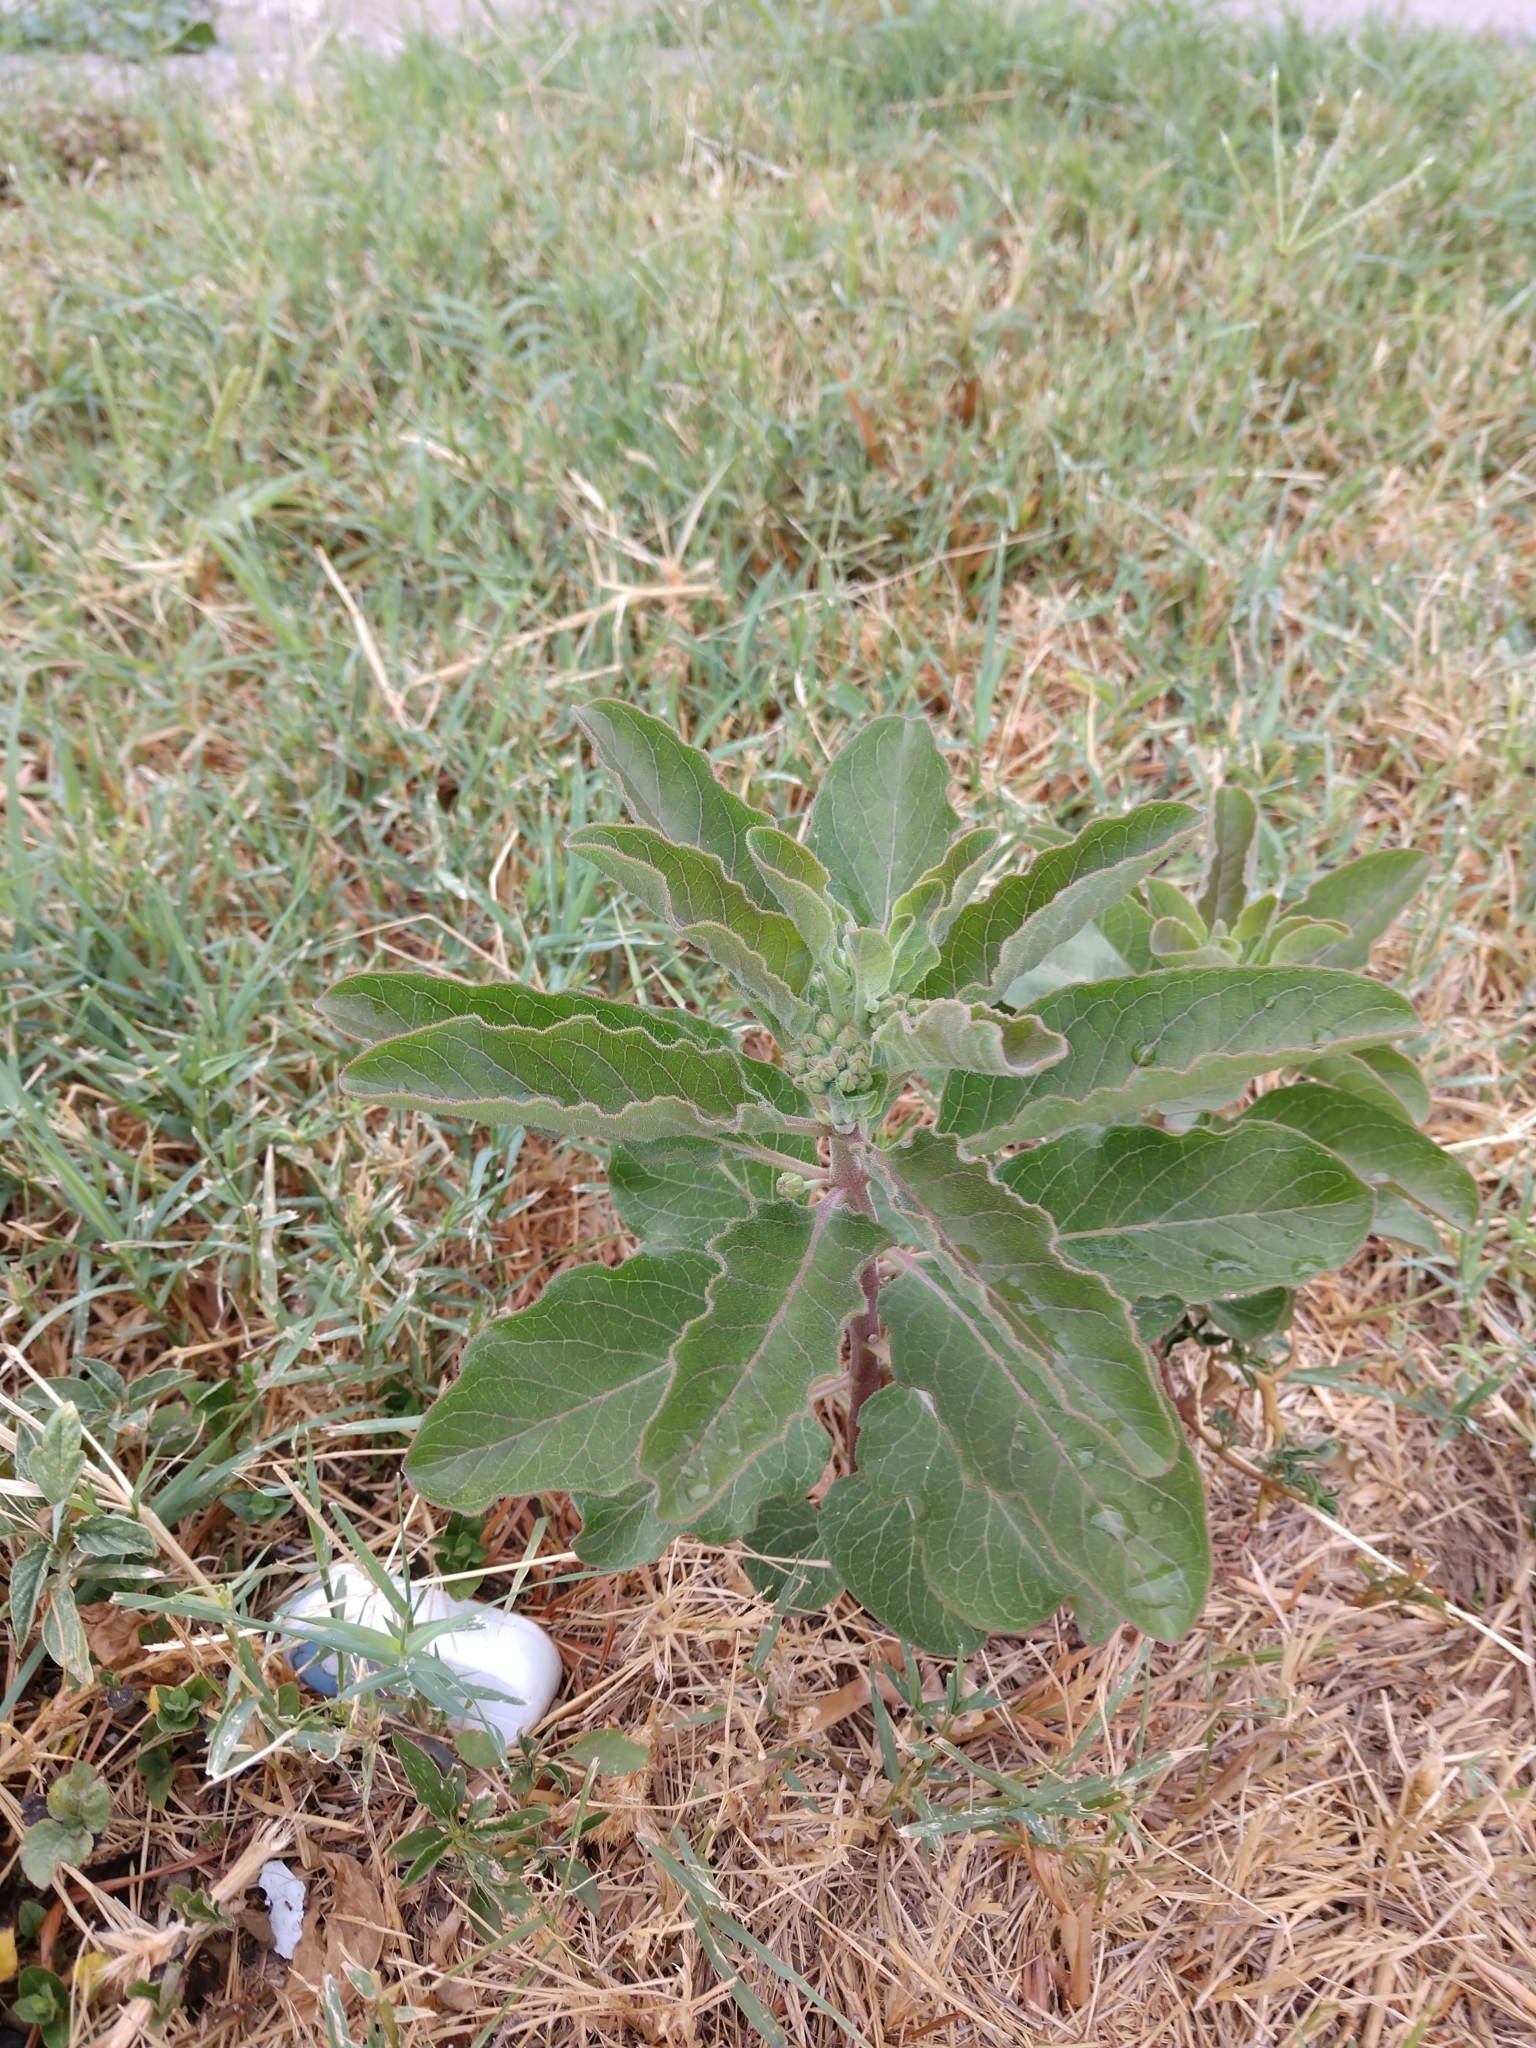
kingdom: Plantae
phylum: Tracheophyta
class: Magnoliopsida
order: Gentianales
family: Apocynaceae
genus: Asclepias
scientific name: Asclepias oenotheroides
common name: Zizotes milkweed
